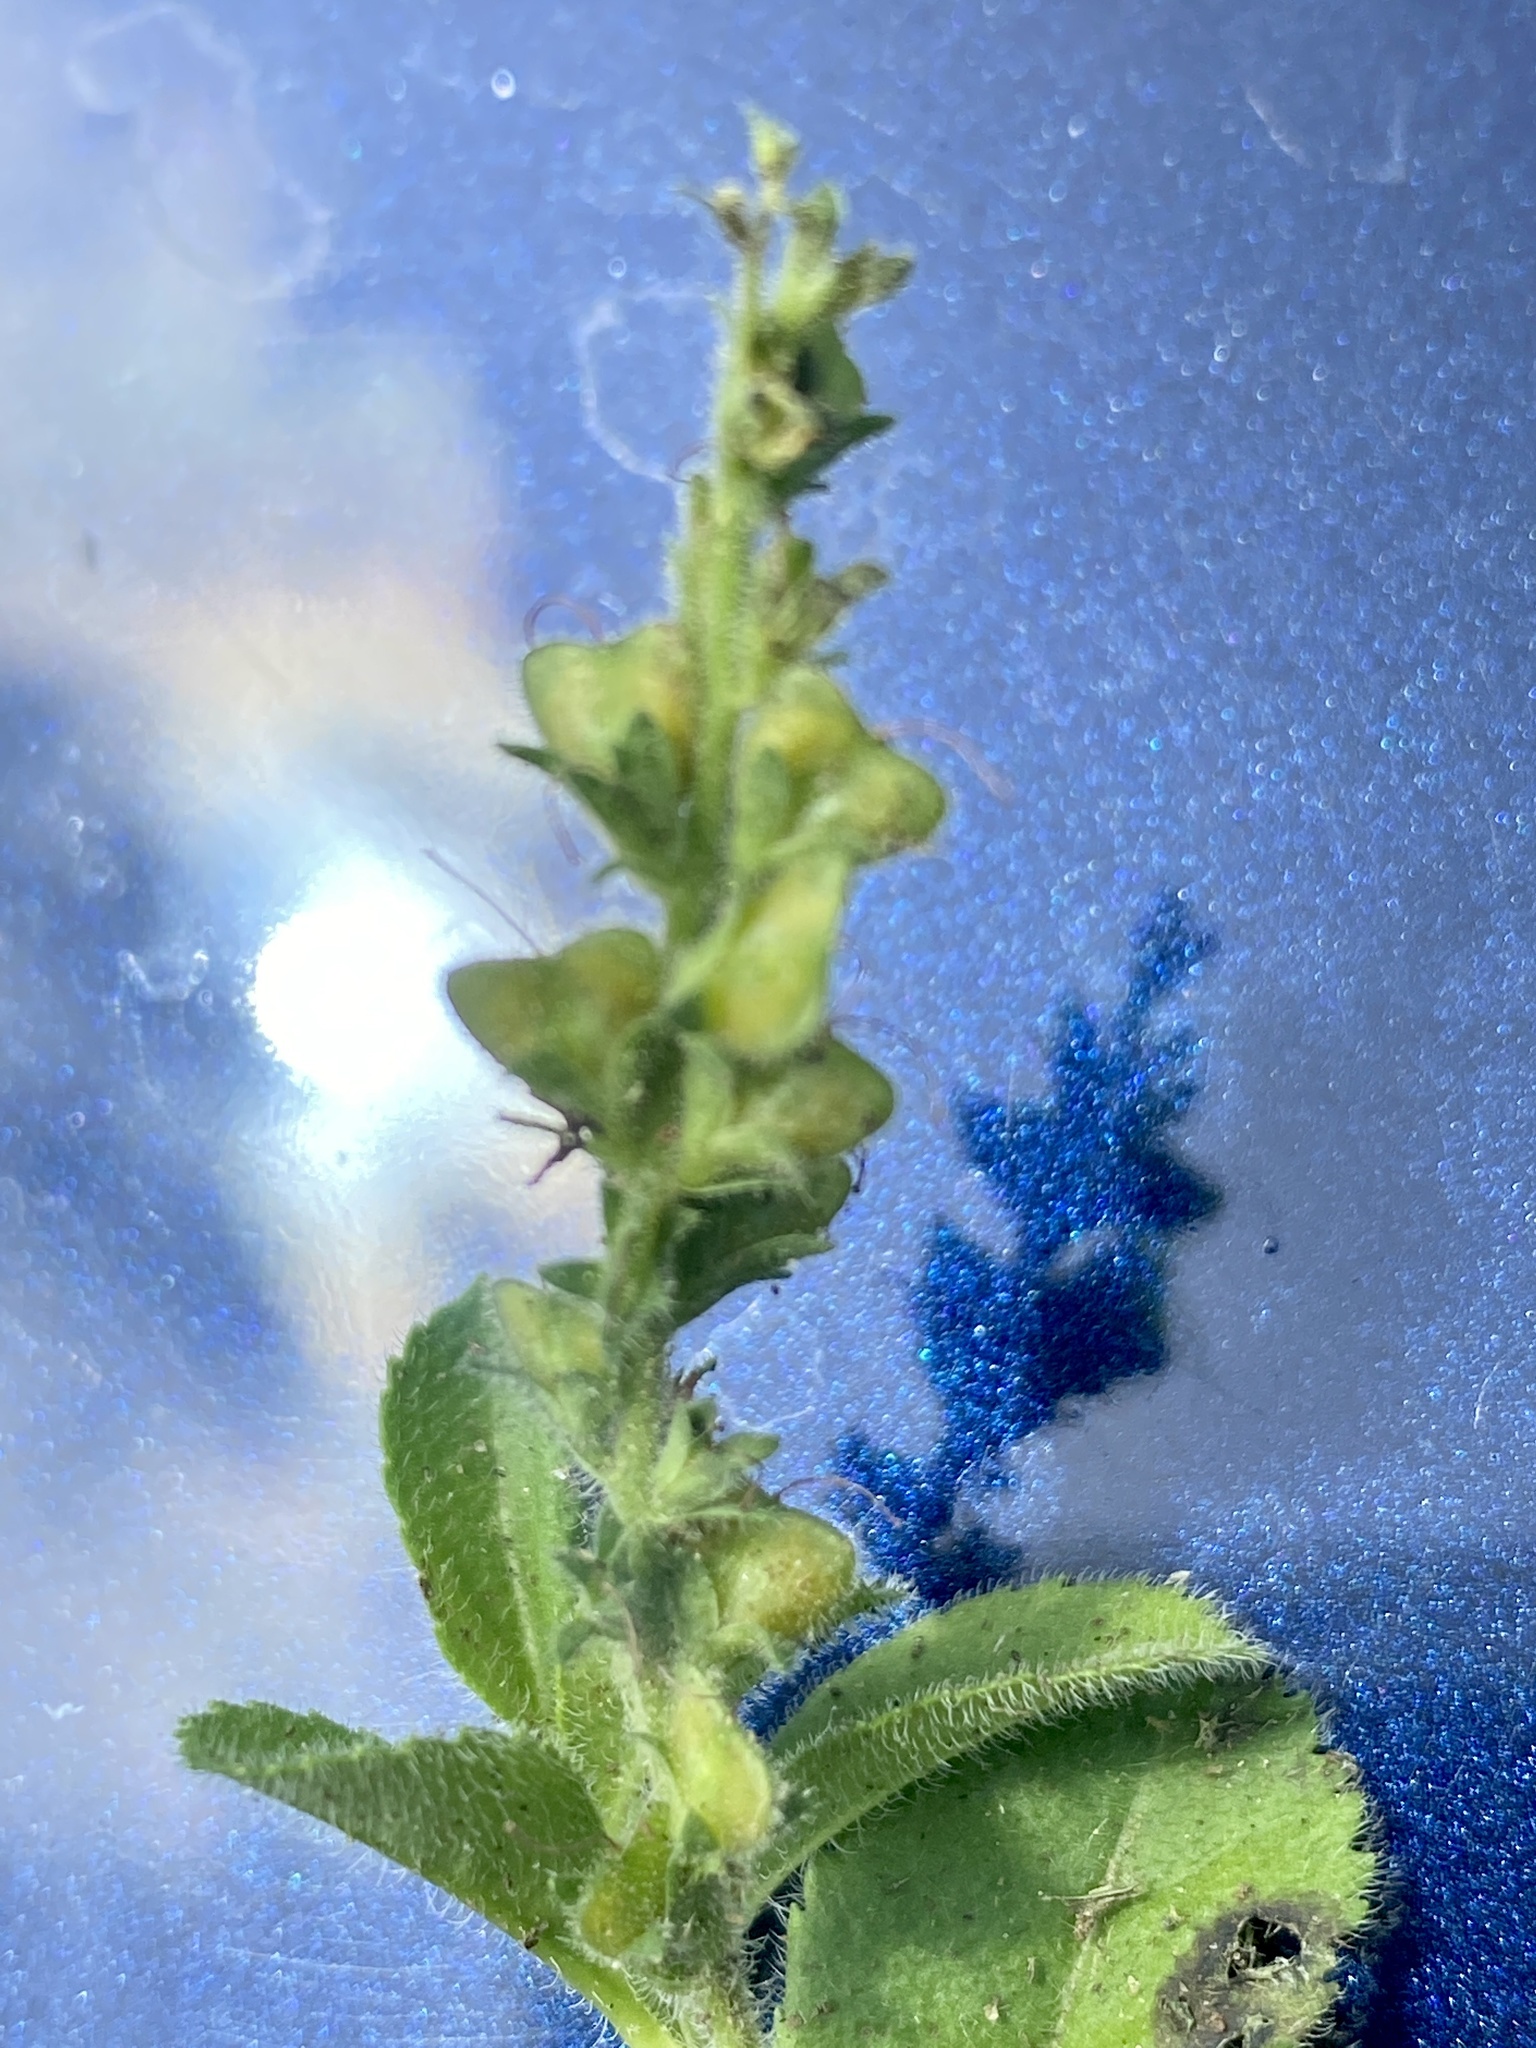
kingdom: Plantae
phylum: Tracheophyta
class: Magnoliopsida
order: Lamiales
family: Plantaginaceae
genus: Veronica
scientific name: Veronica officinalis
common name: Common speedwell
